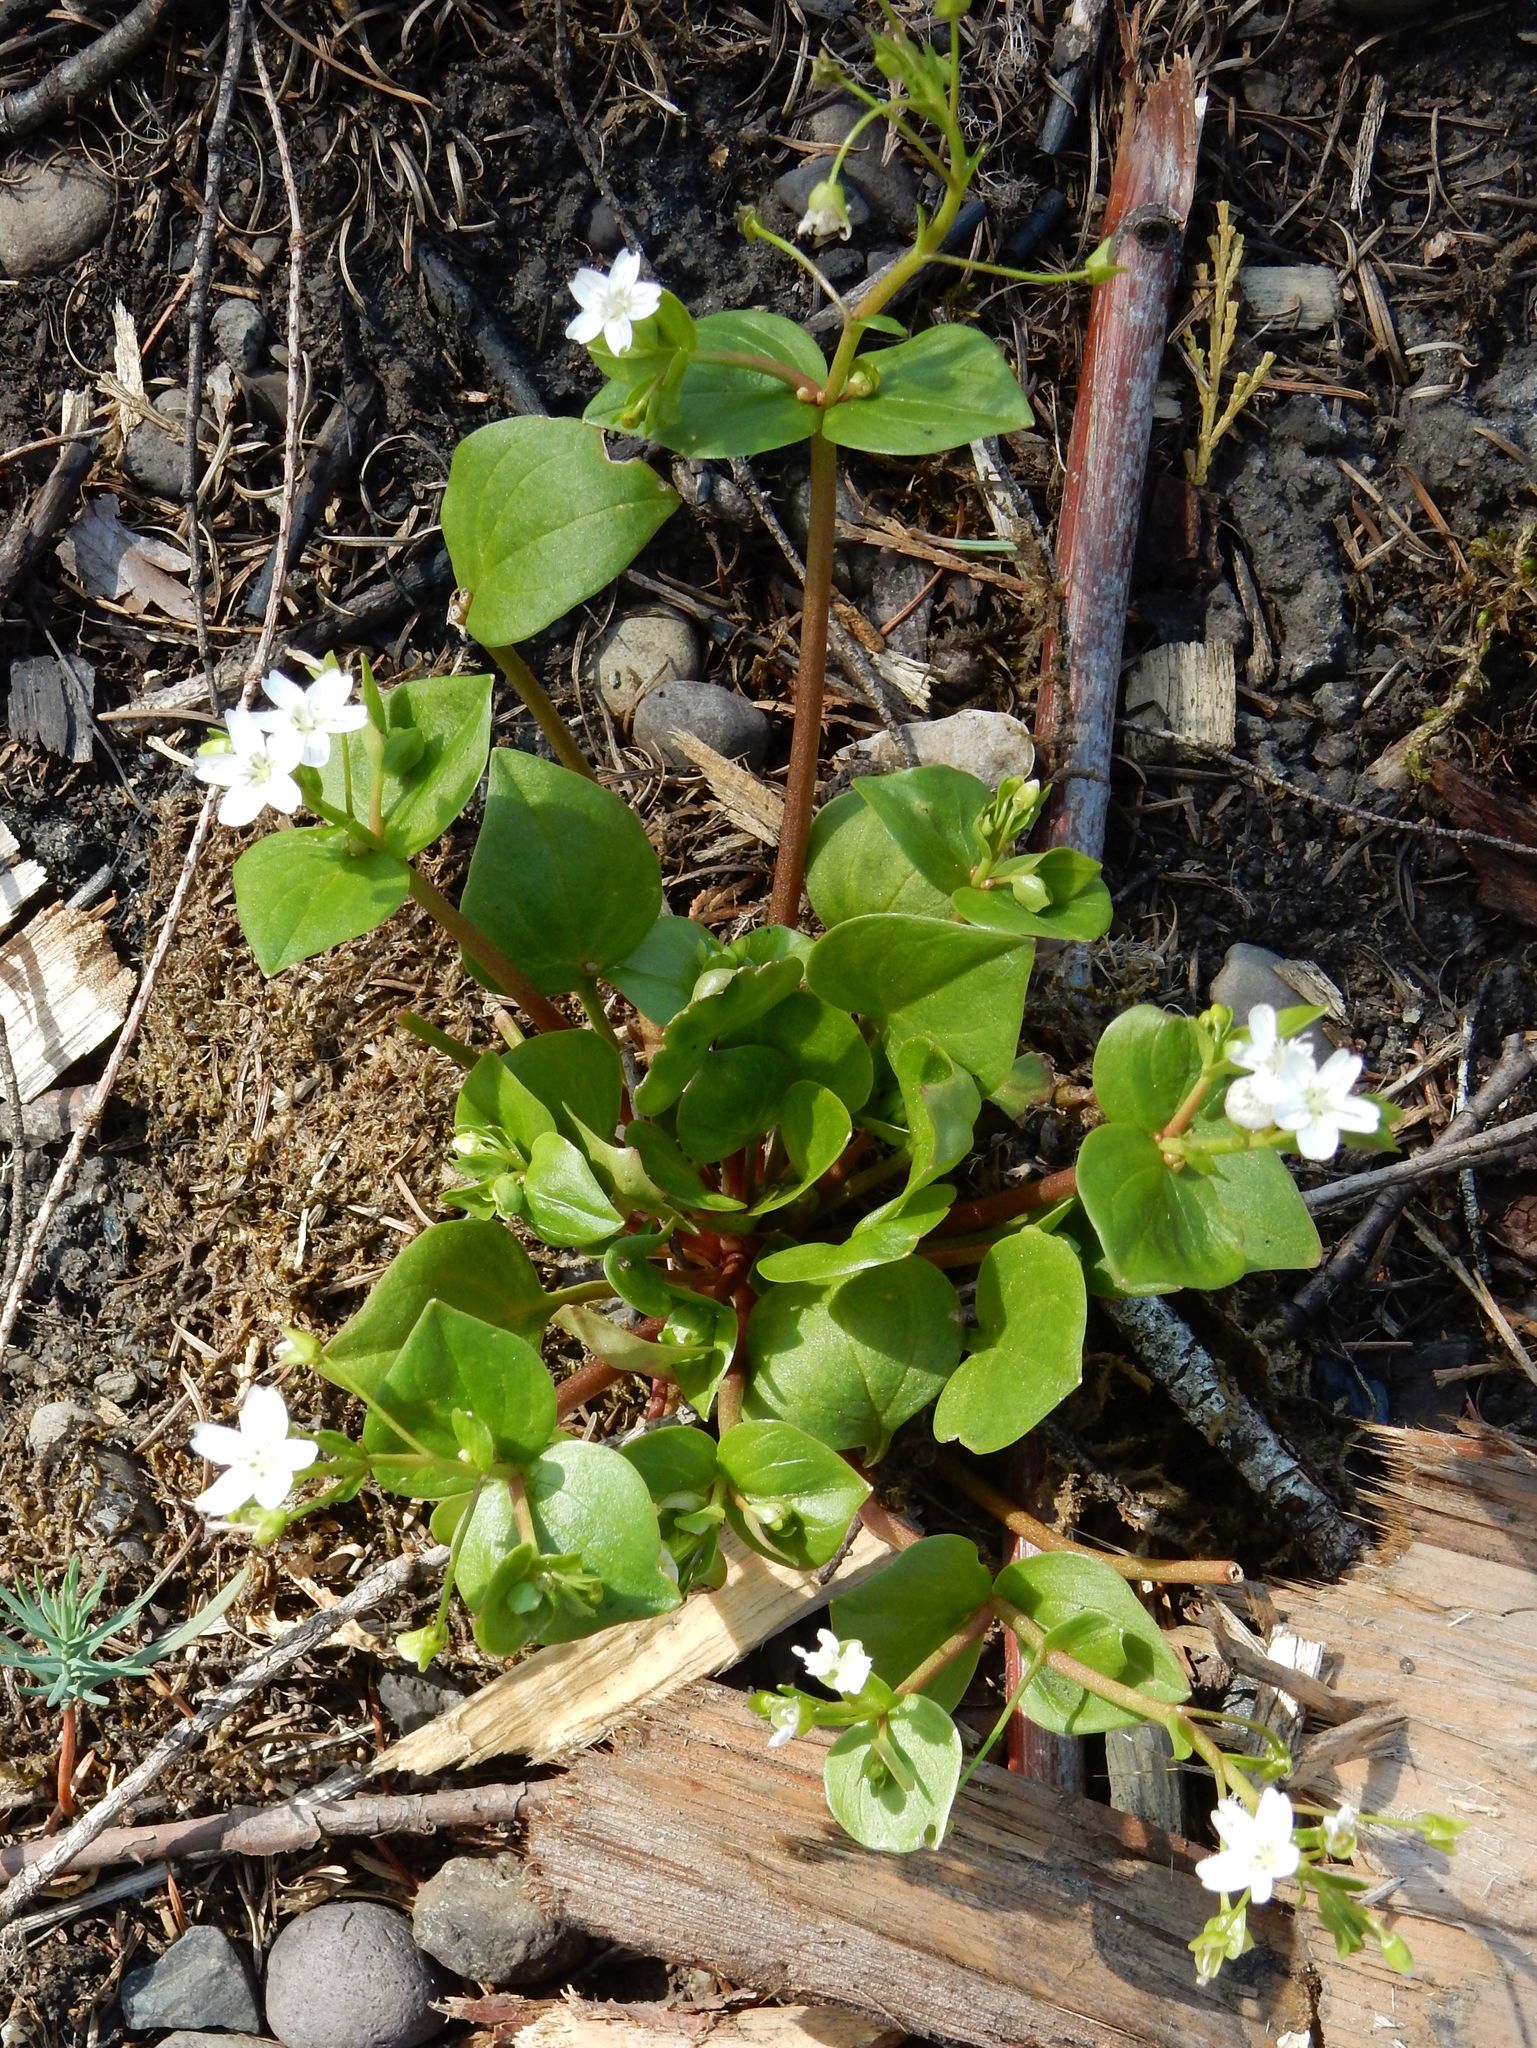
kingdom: Plantae
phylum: Tracheophyta
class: Magnoliopsida
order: Caryophyllales
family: Montiaceae
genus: Claytonia
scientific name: Claytonia sibirica
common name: Pink purslane
